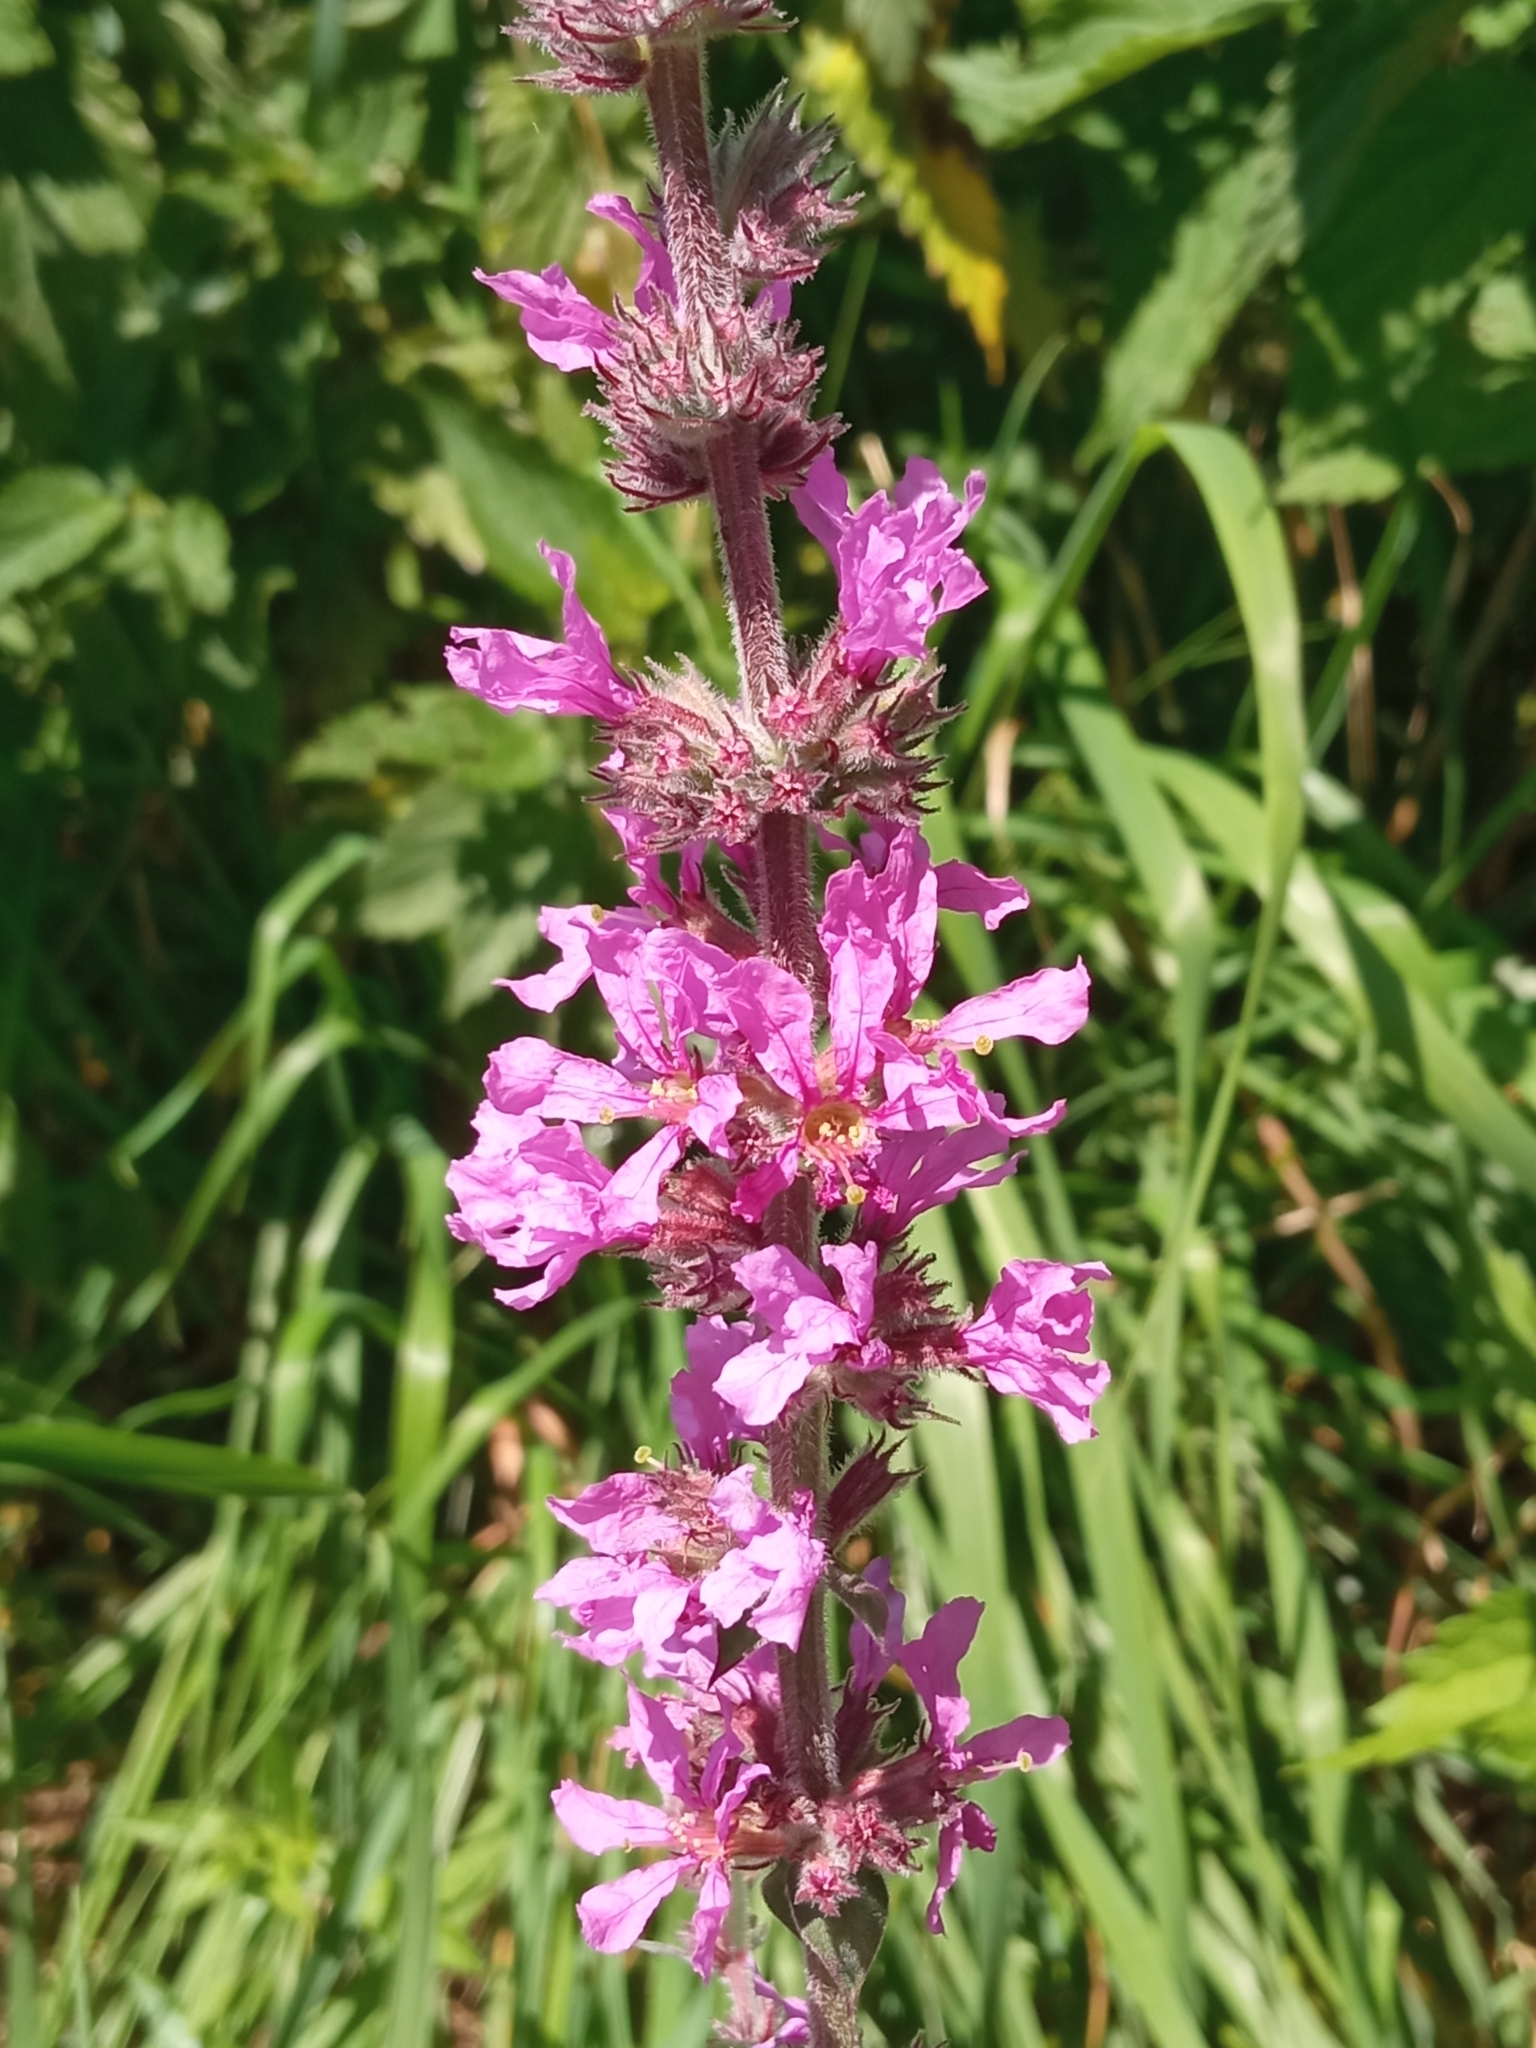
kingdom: Plantae
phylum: Tracheophyta
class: Magnoliopsida
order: Myrtales
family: Lythraceae
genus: Lythrum
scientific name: Lythrum salicaria
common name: Purple loosestrife
